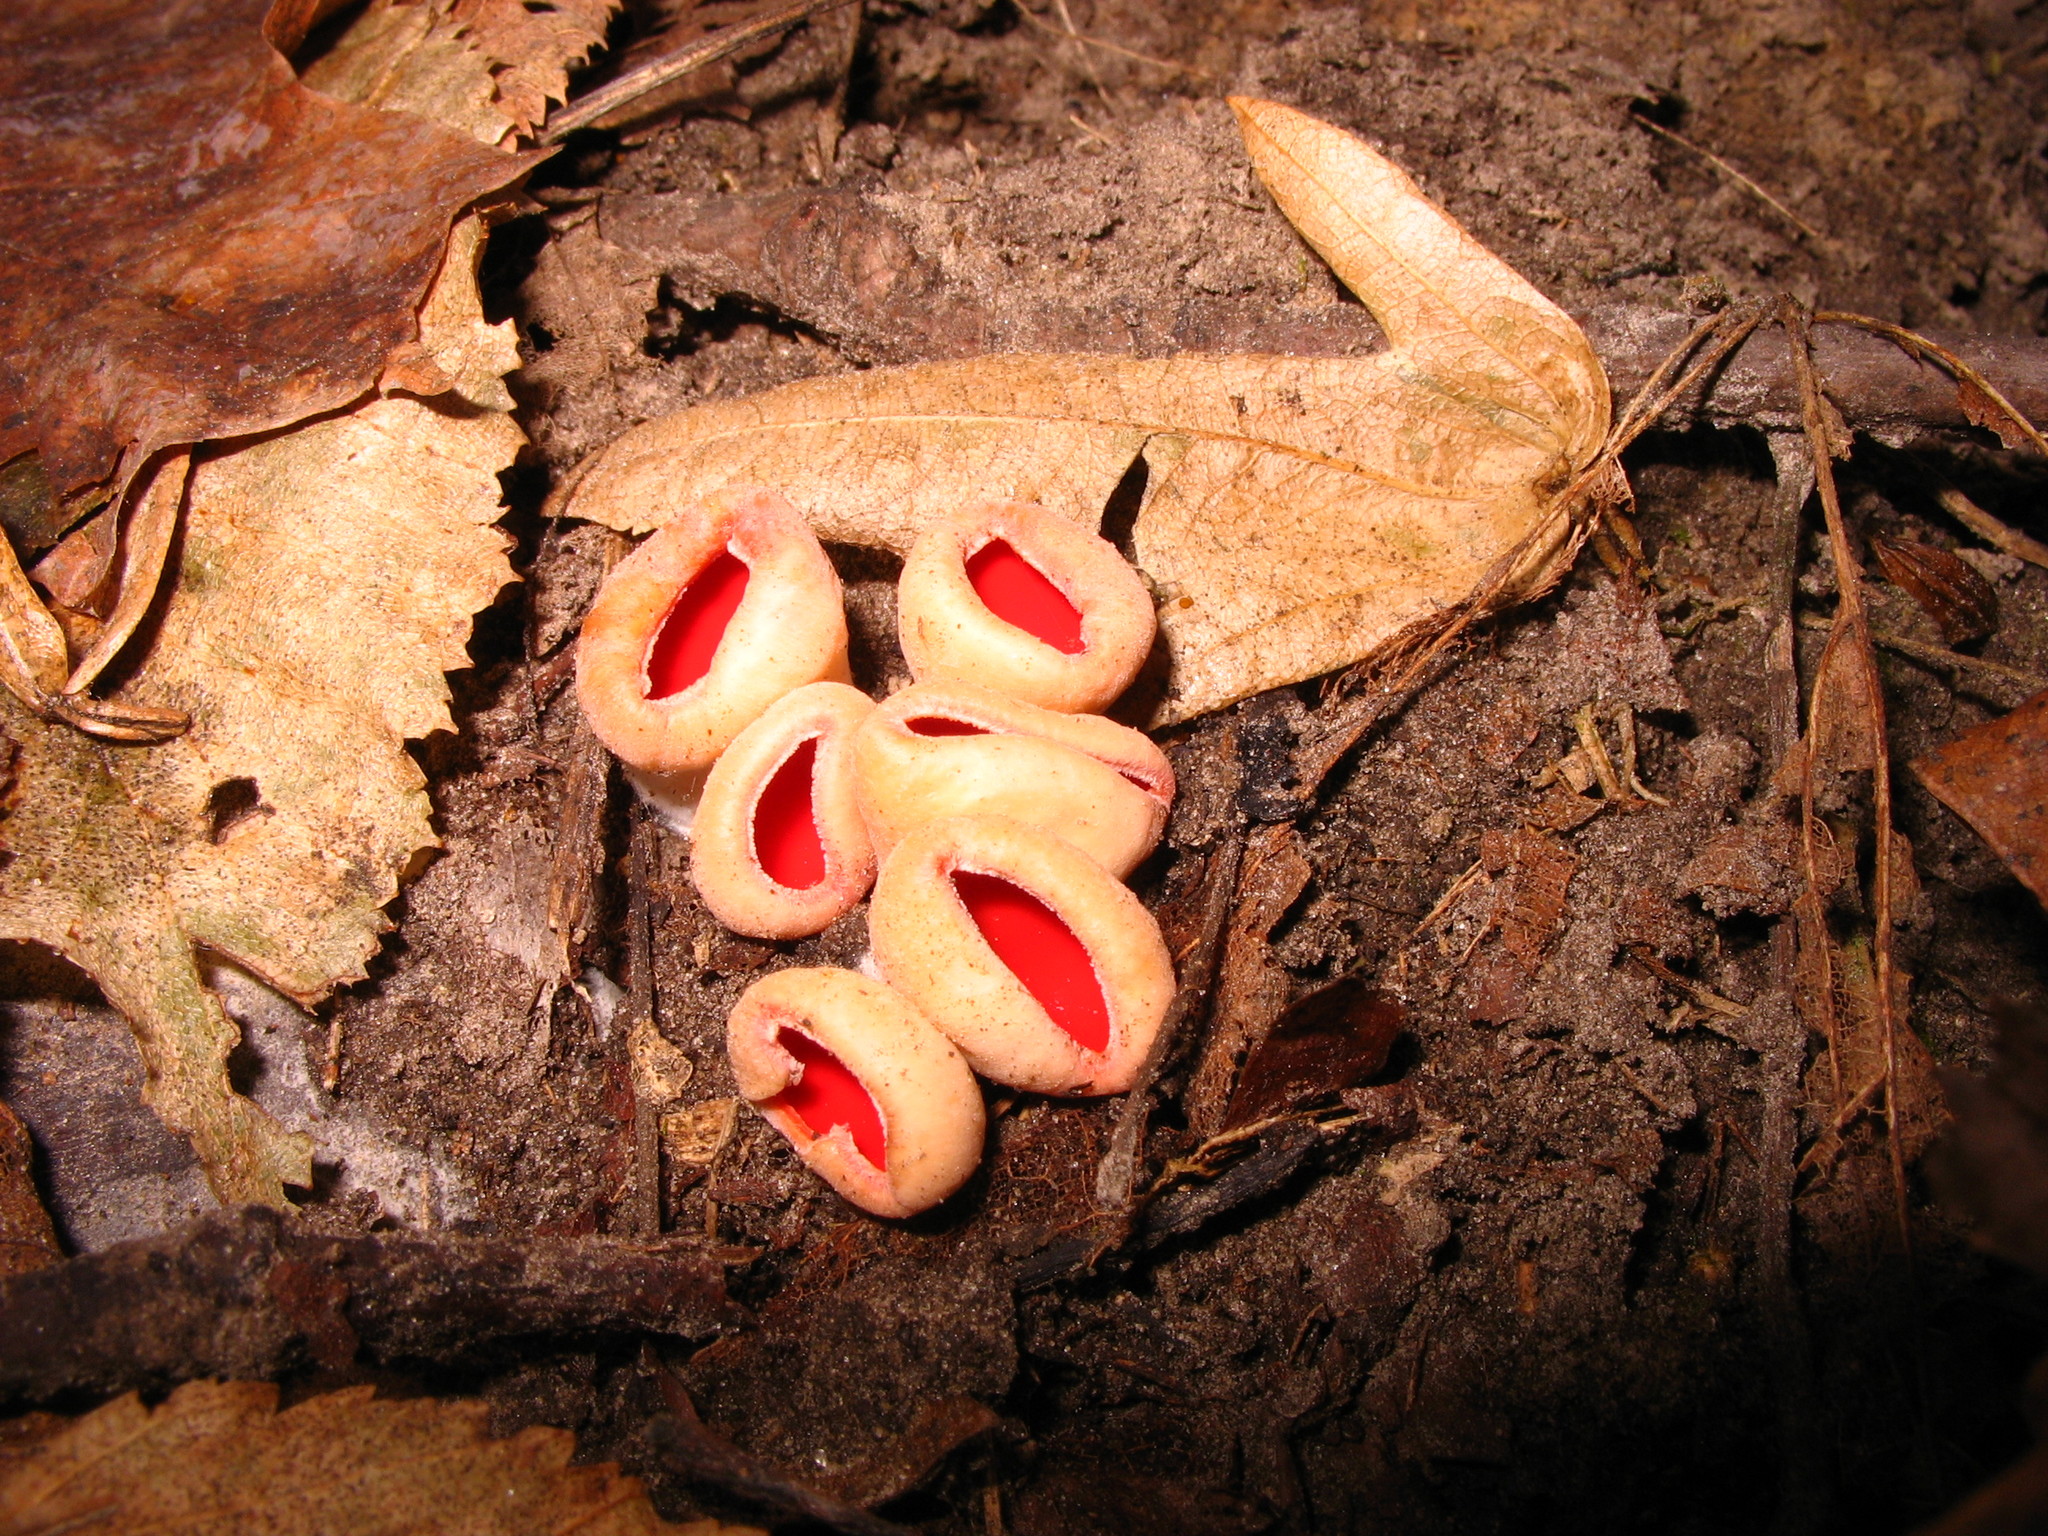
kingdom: Fungi
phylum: Ascomycota
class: Pezizomycetes
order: Pezizales
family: Sarcoscyphaceae
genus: Sarcoscypha
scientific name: Sarcoscypha
